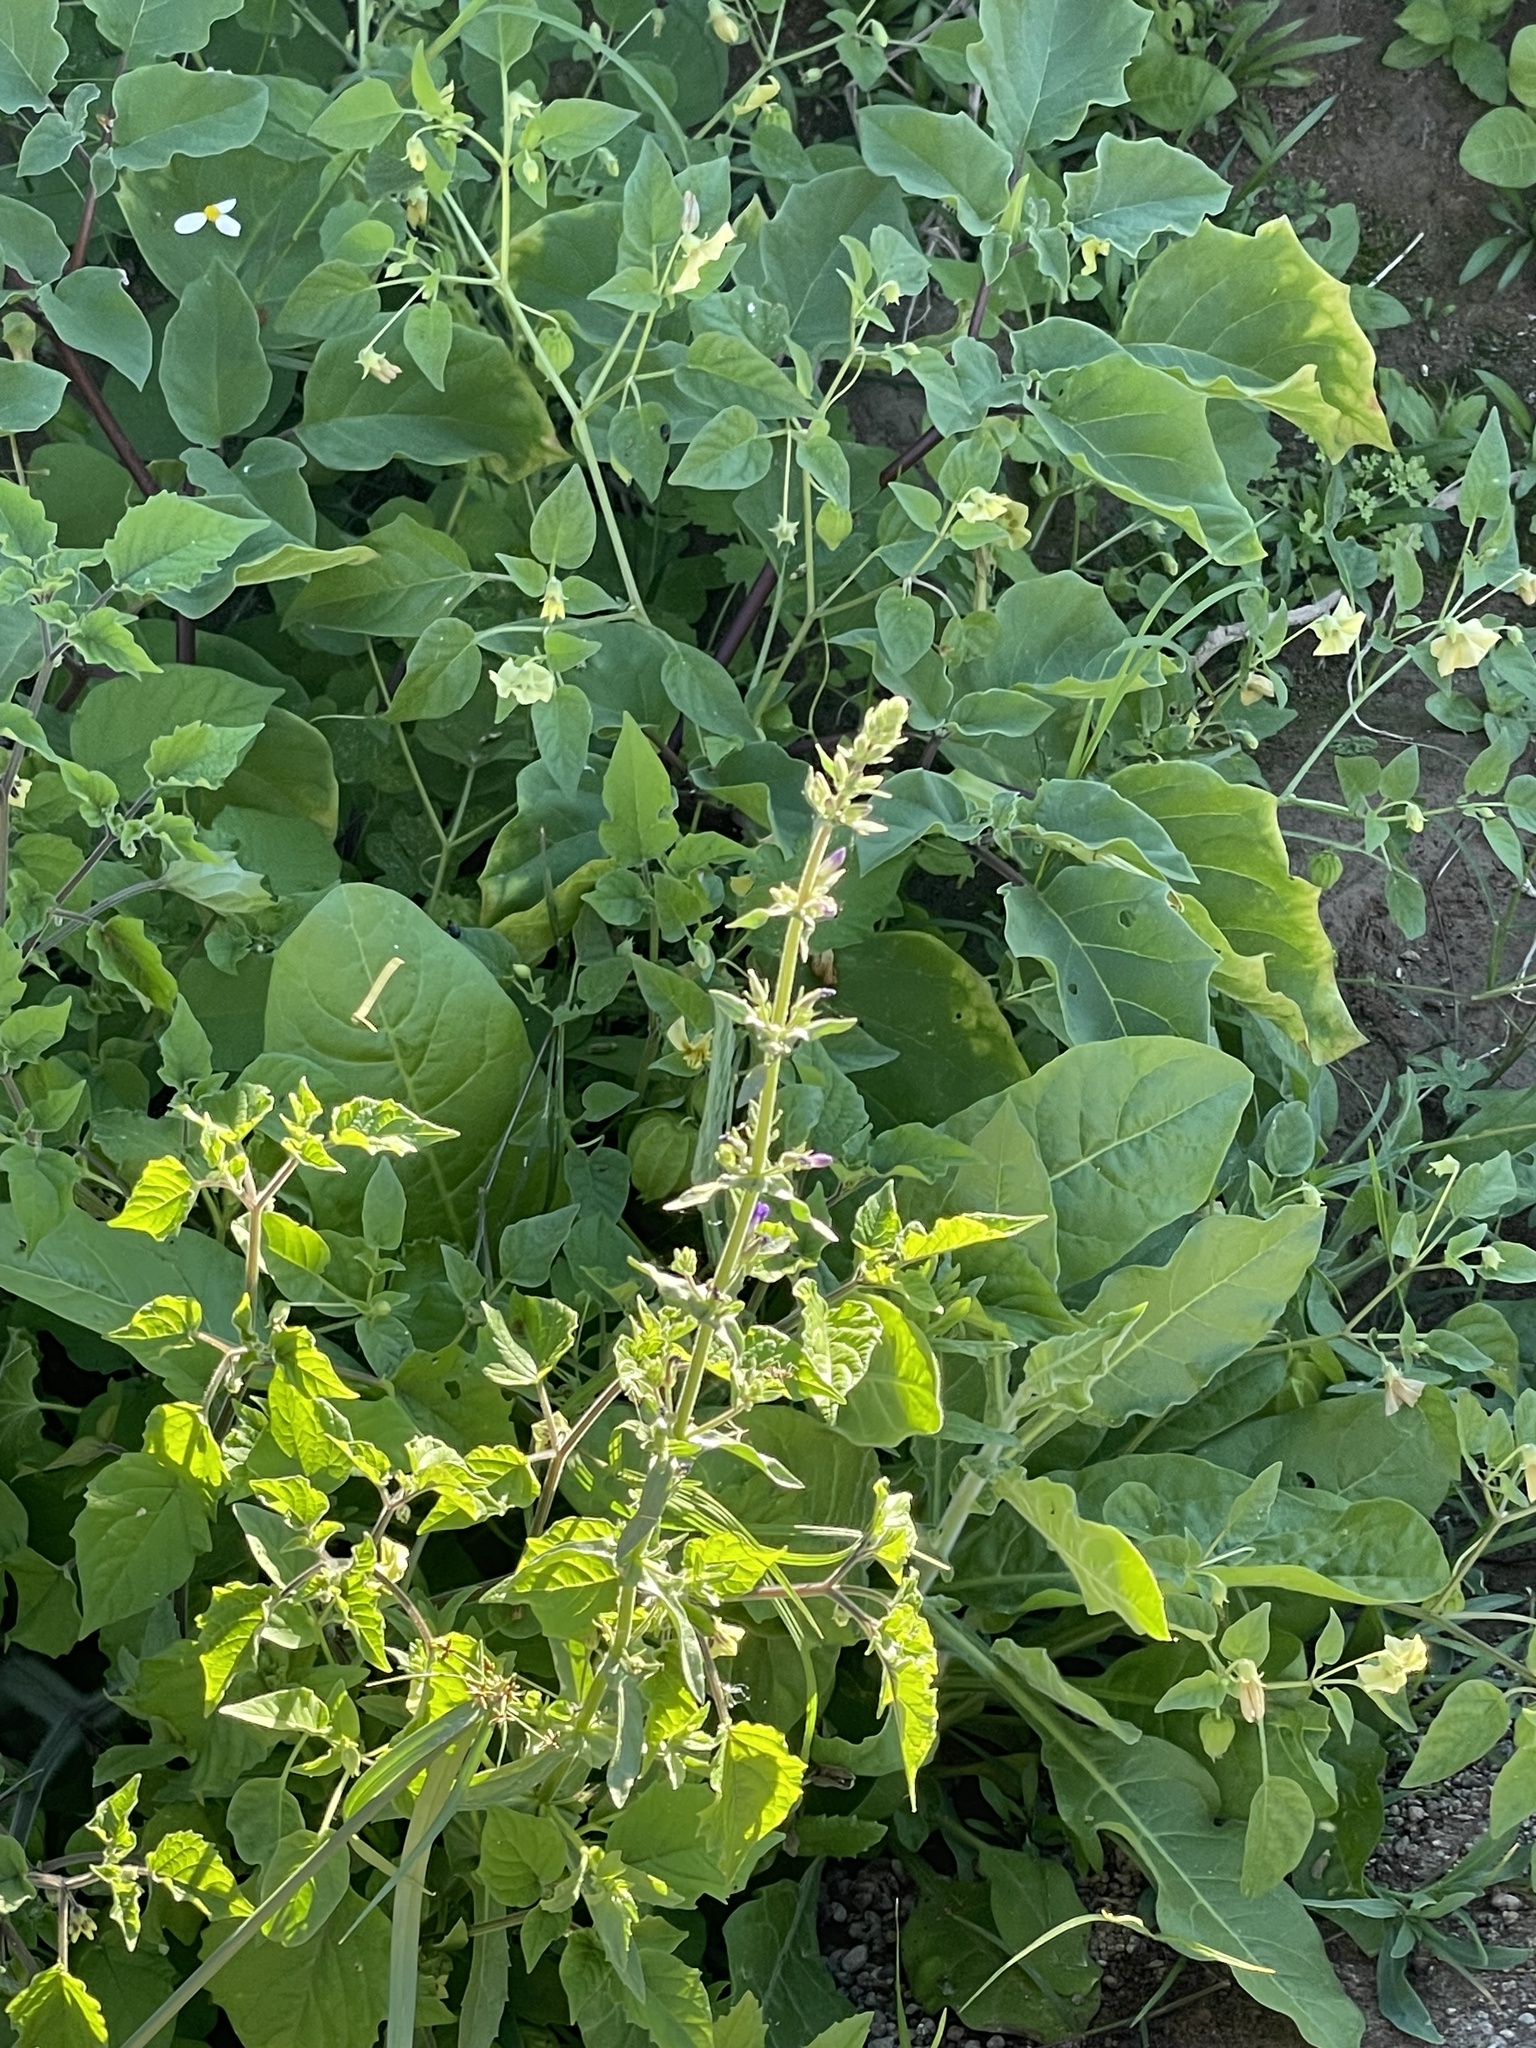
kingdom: Plantae
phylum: Tracheophyta
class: Magnoliopsida
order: Lamiales
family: Plantaginaceae
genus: Stemodia
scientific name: Stemodia durantifolia
